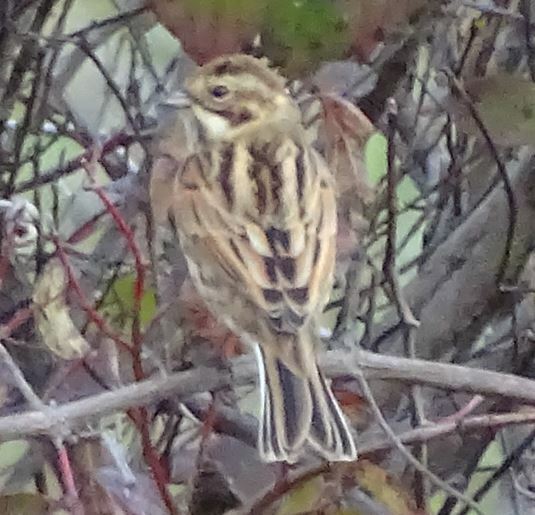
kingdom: Animalia
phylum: Chordata
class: Aves
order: Passeriformes
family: Emberizidae
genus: Emberiza
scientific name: Emberiza schoeniclus
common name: Reed bunting
